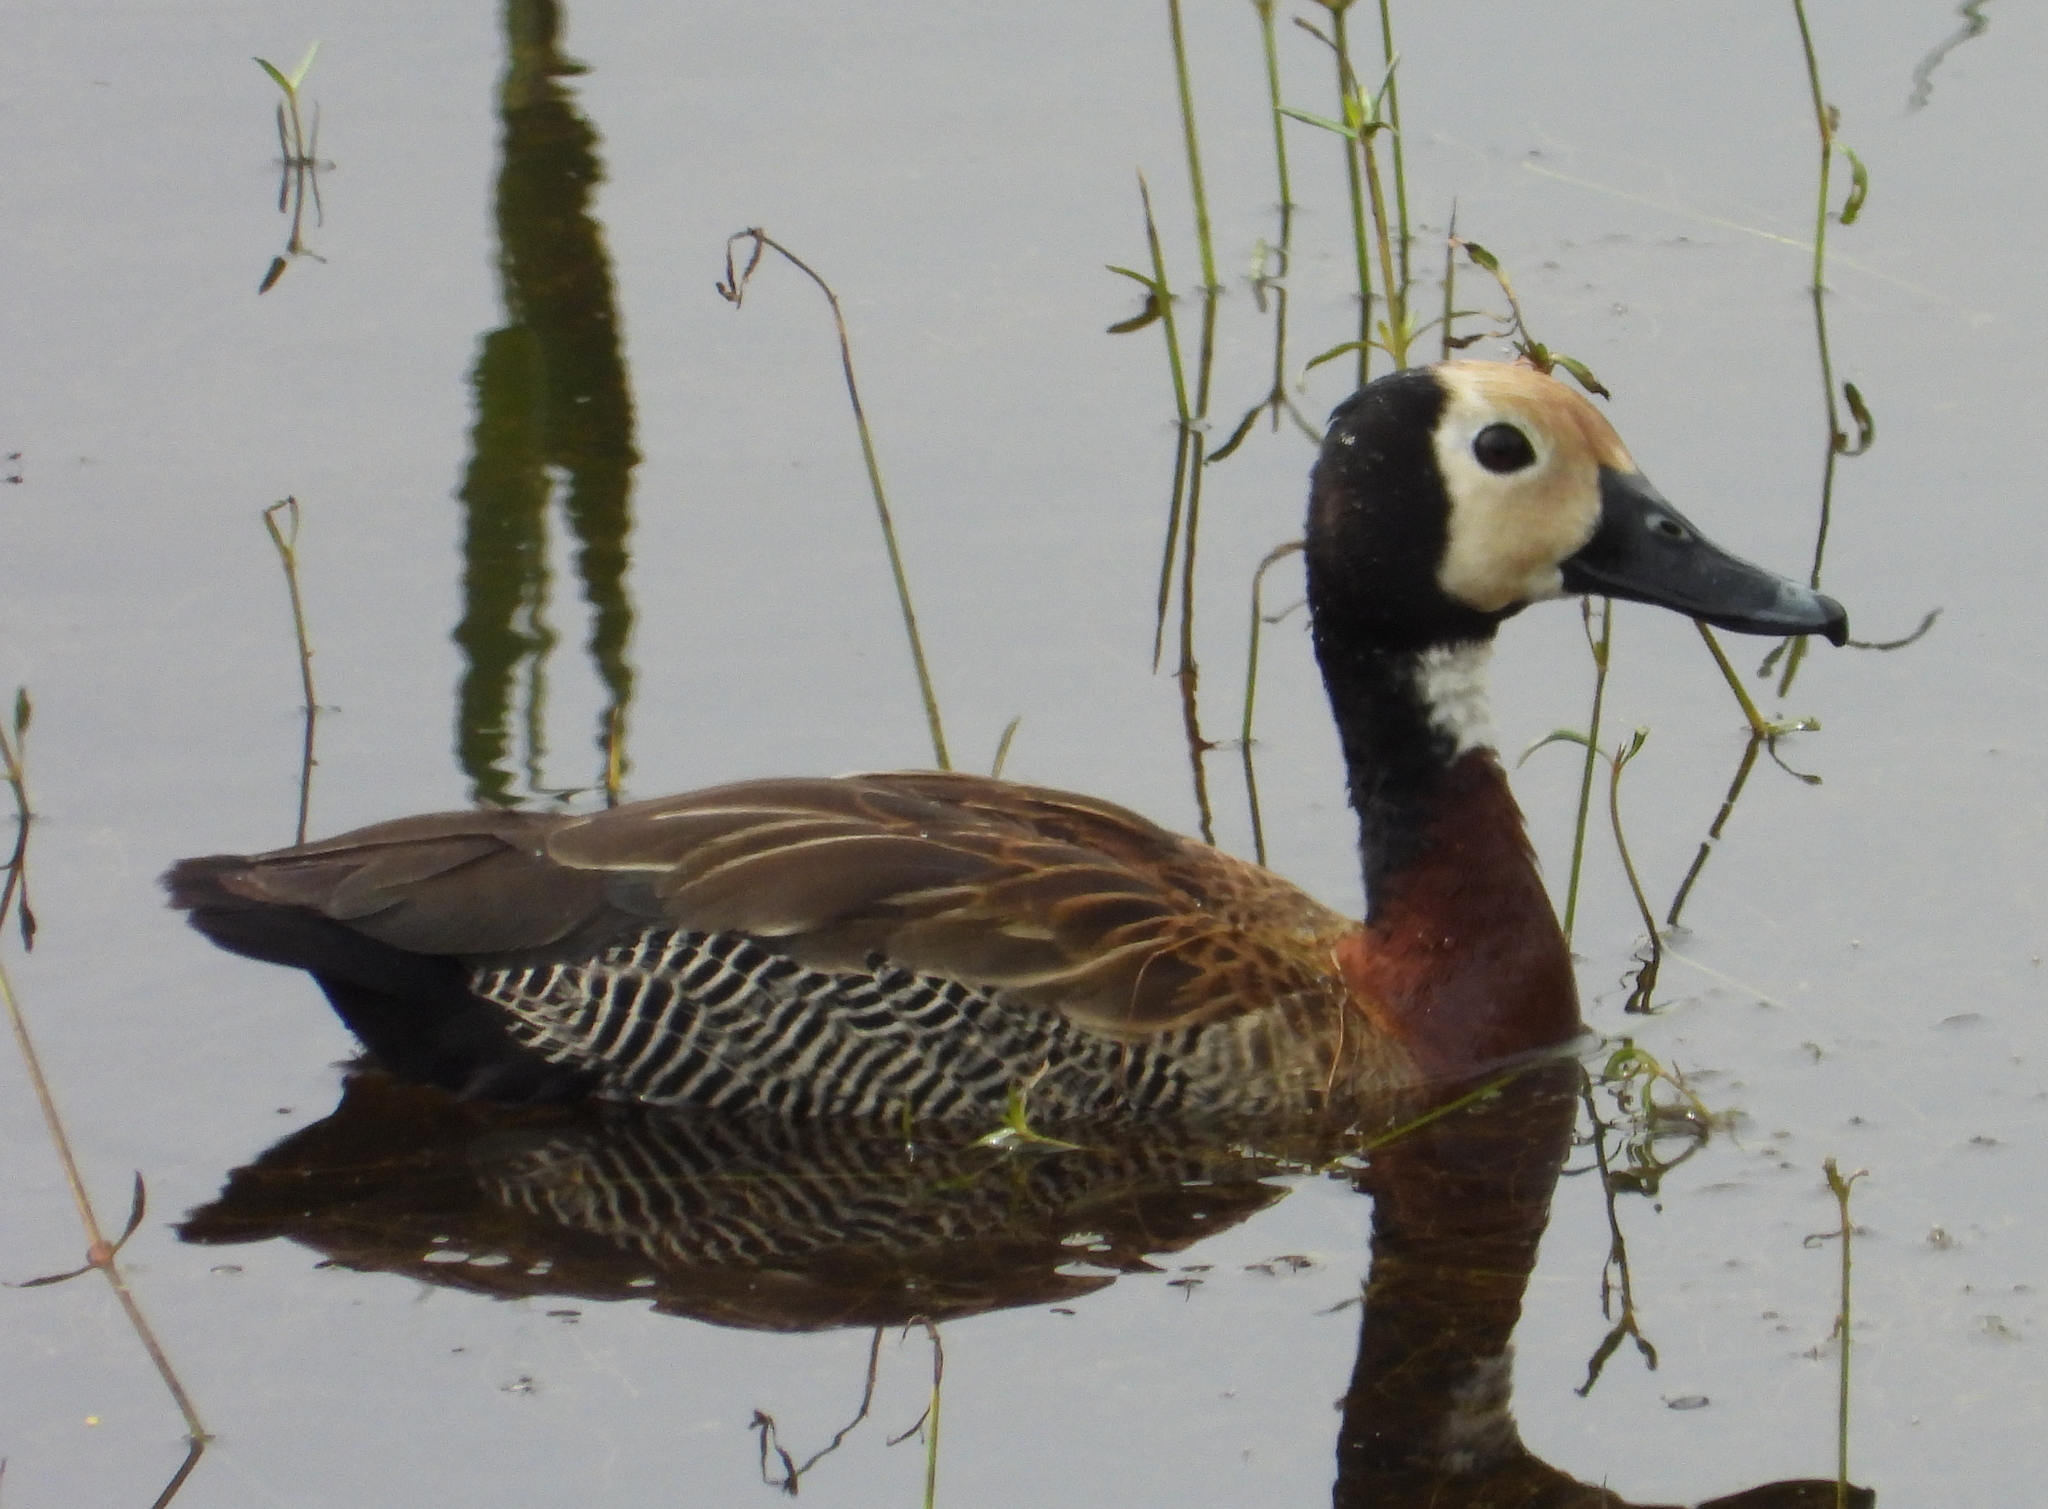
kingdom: Animalia
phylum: Chordata
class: Aves
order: Anseriformes
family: Anatidae
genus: Dendrocygna
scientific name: Dendrocygna viduata
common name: White-faced whistling duck
